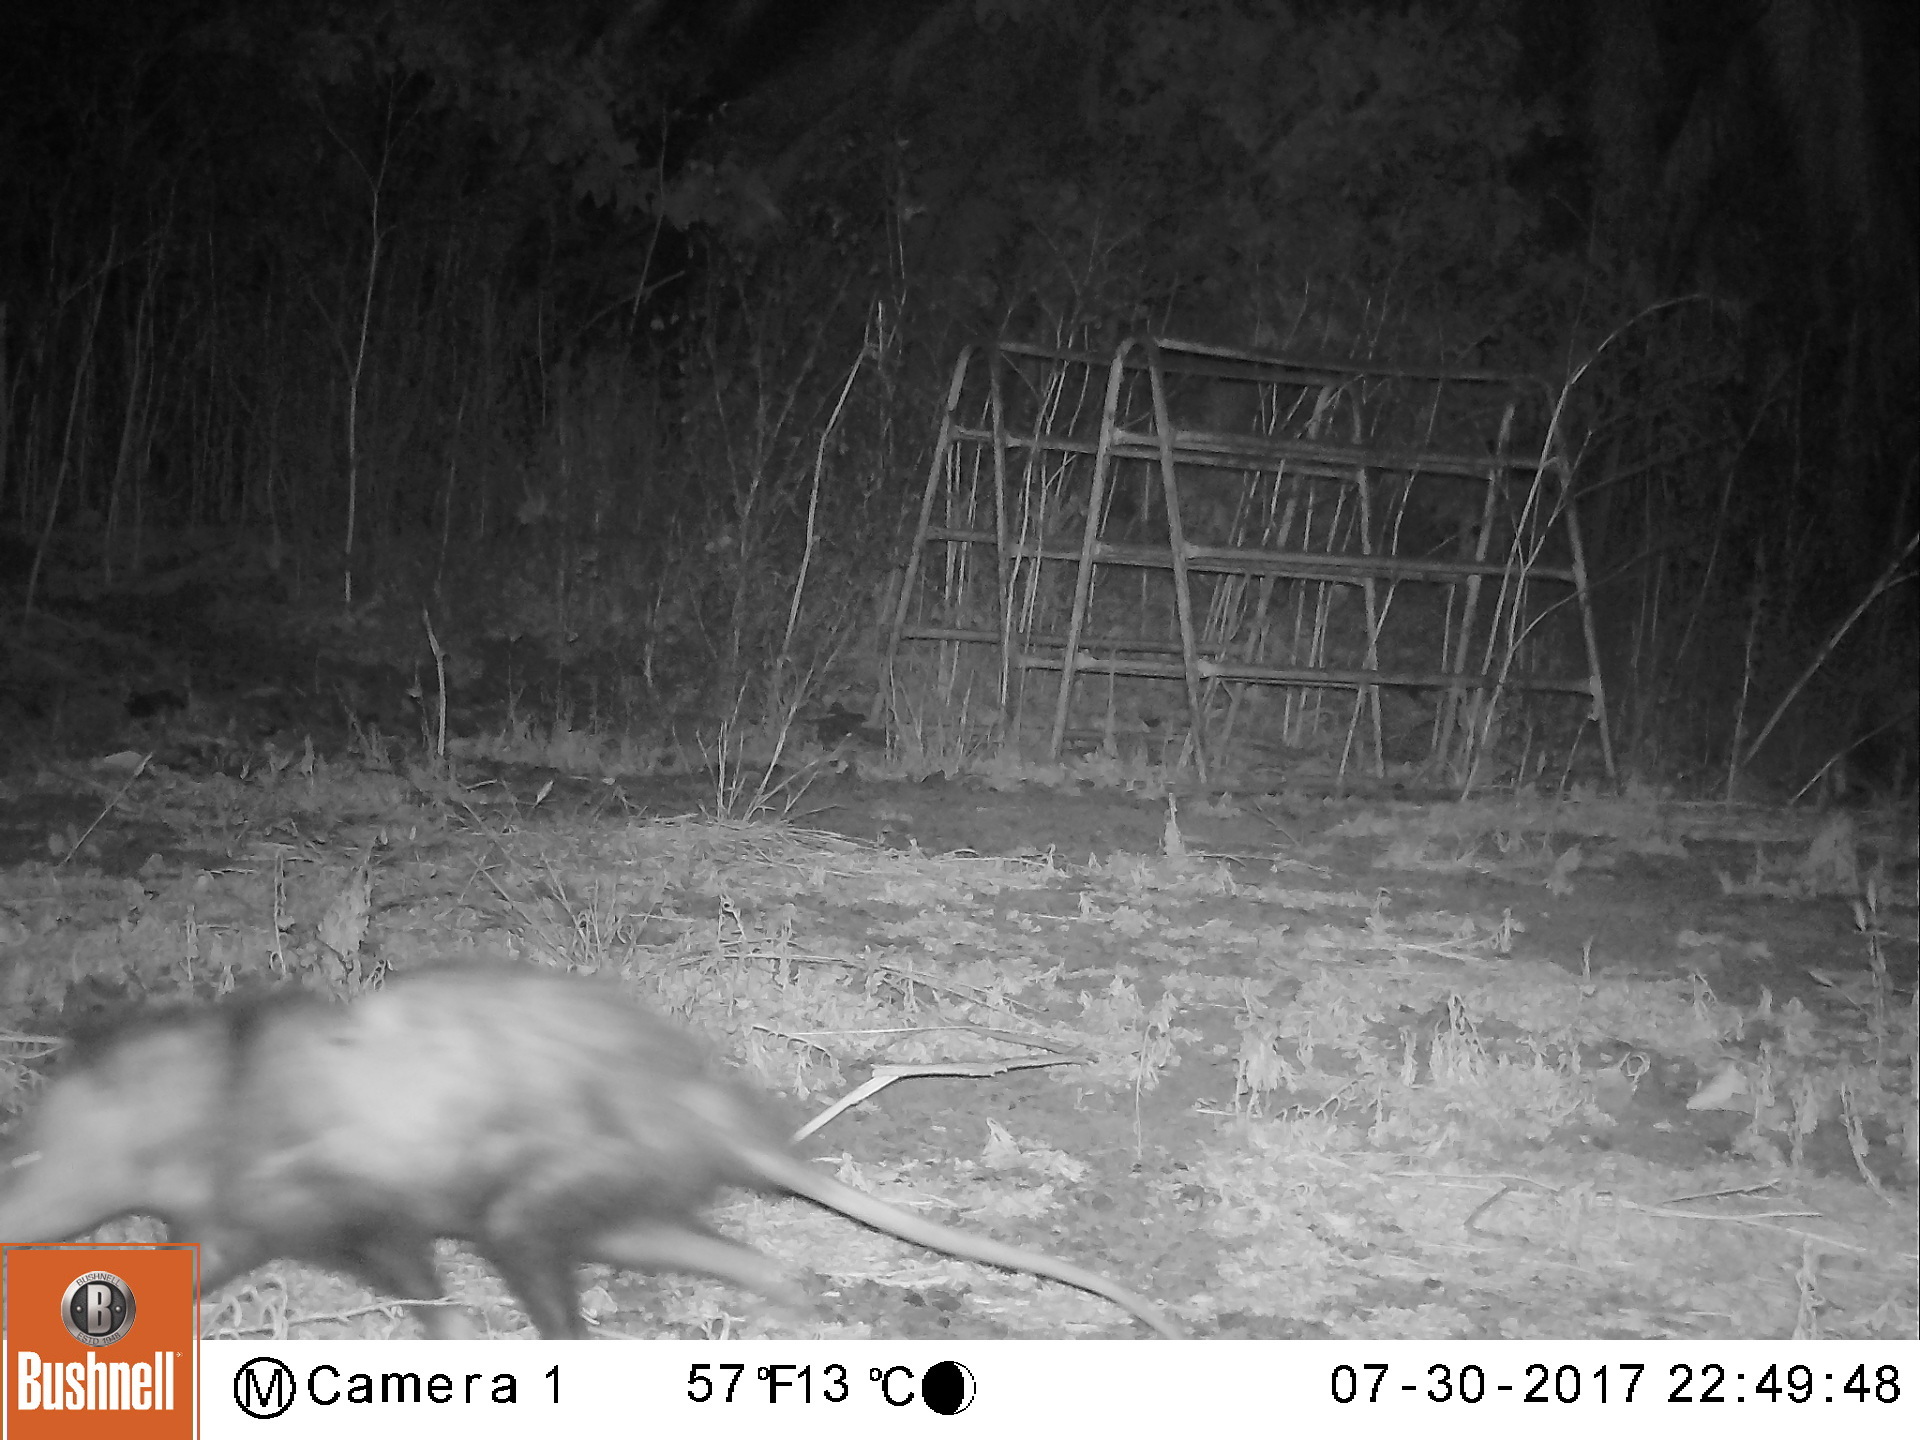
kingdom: Animalia
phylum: Chordata
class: Mammalia
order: Didelphimorphia
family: Didelphidae
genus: Didelphis
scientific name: Didelphis virginiana
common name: Virginia opossum
